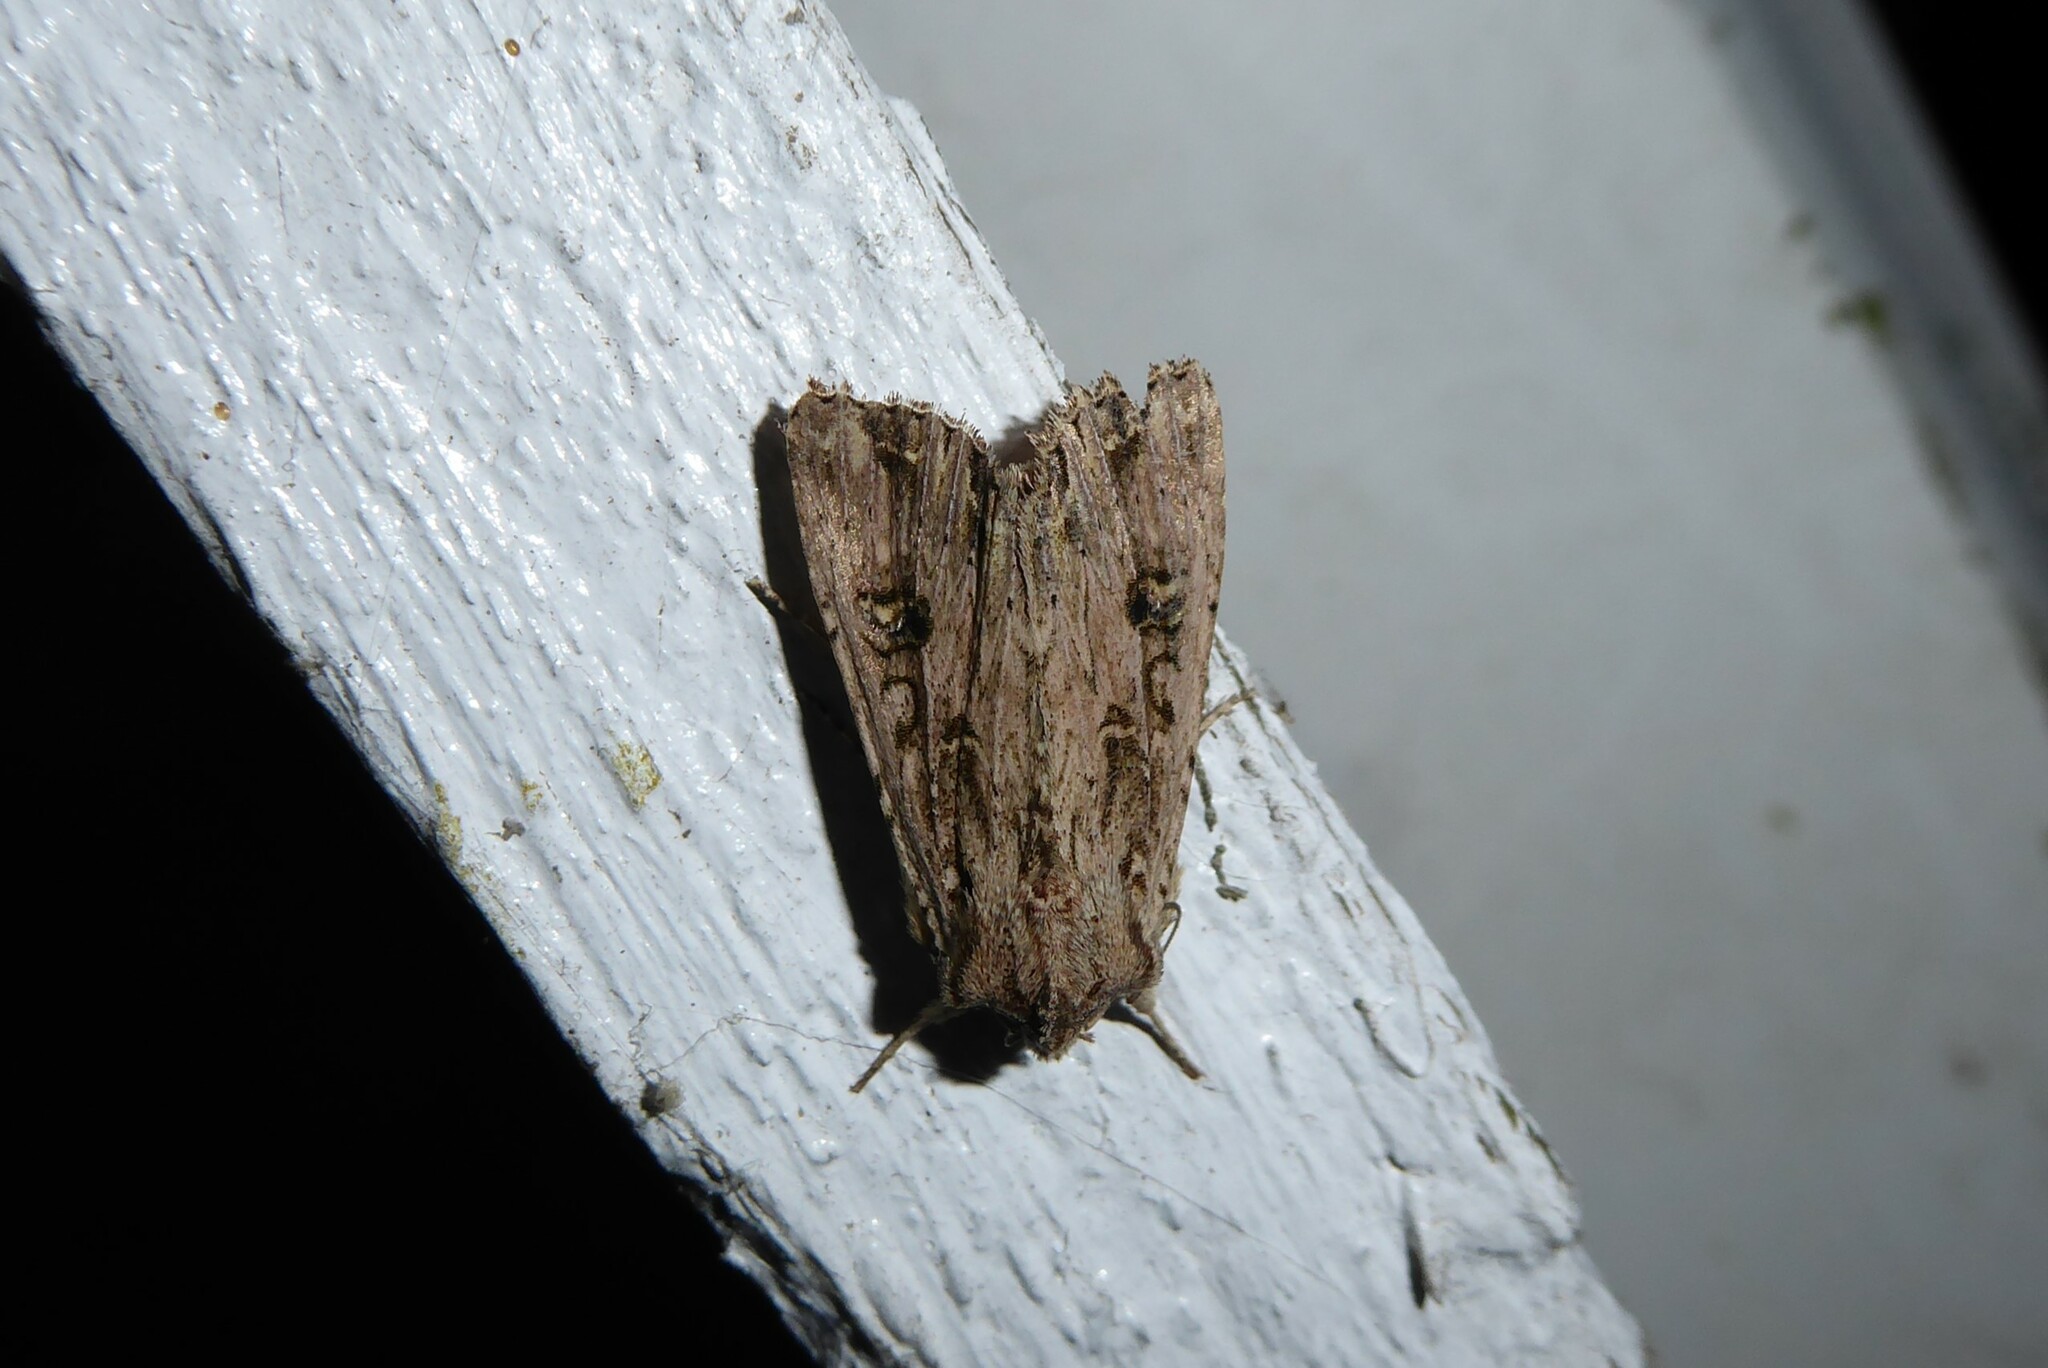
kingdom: Animalia
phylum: Arthropoda
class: Insecta
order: Lepidoptera
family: Noctuidae
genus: Ichneutica
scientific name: Ichneutica lignana
